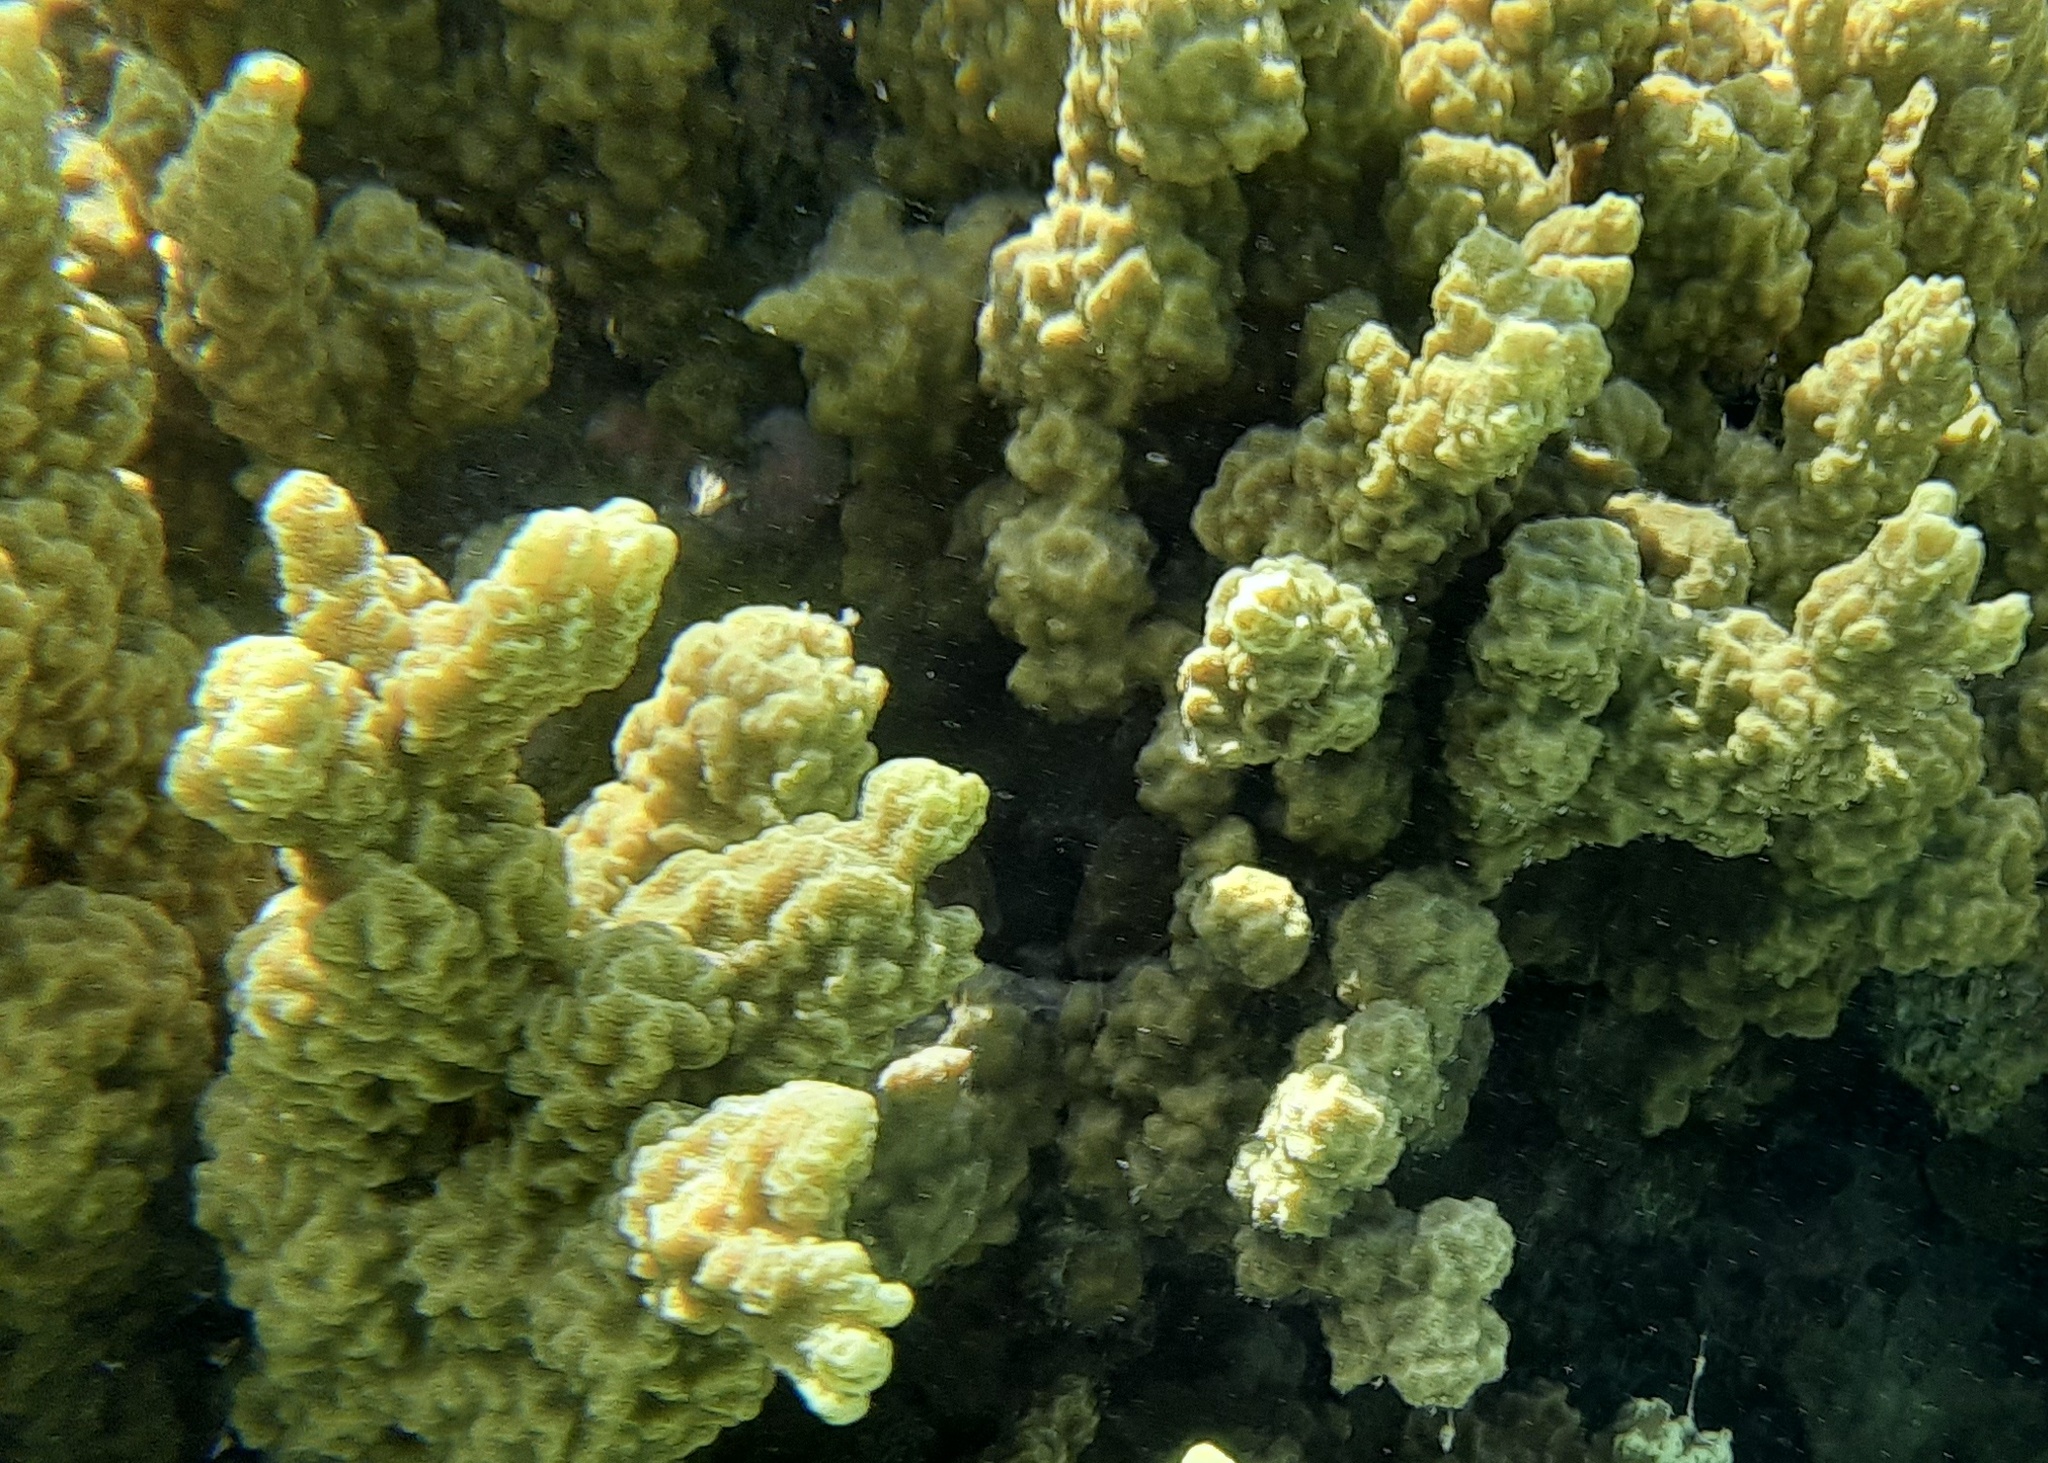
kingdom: Animalia
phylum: Cnidaria
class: Anthozoa
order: Scleractinia
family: Poritidae
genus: Porites
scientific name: Porites rus
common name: Hump coral
